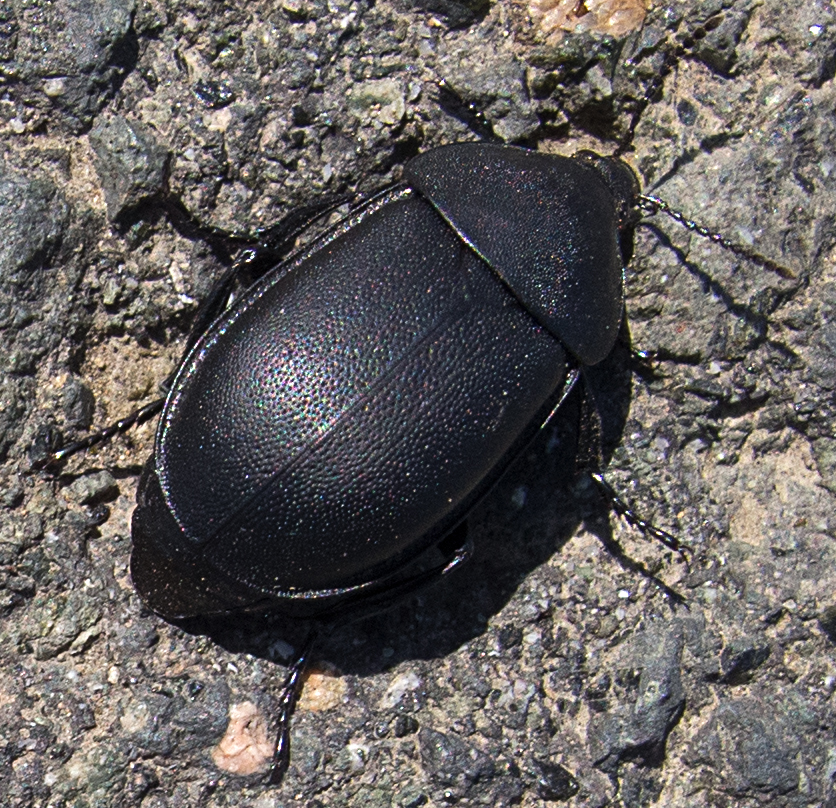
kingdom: Animalia
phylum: Arthropoda
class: Insecta
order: Coleoptera
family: Staphylinidae
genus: Silpha
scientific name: Silpha laevigata
